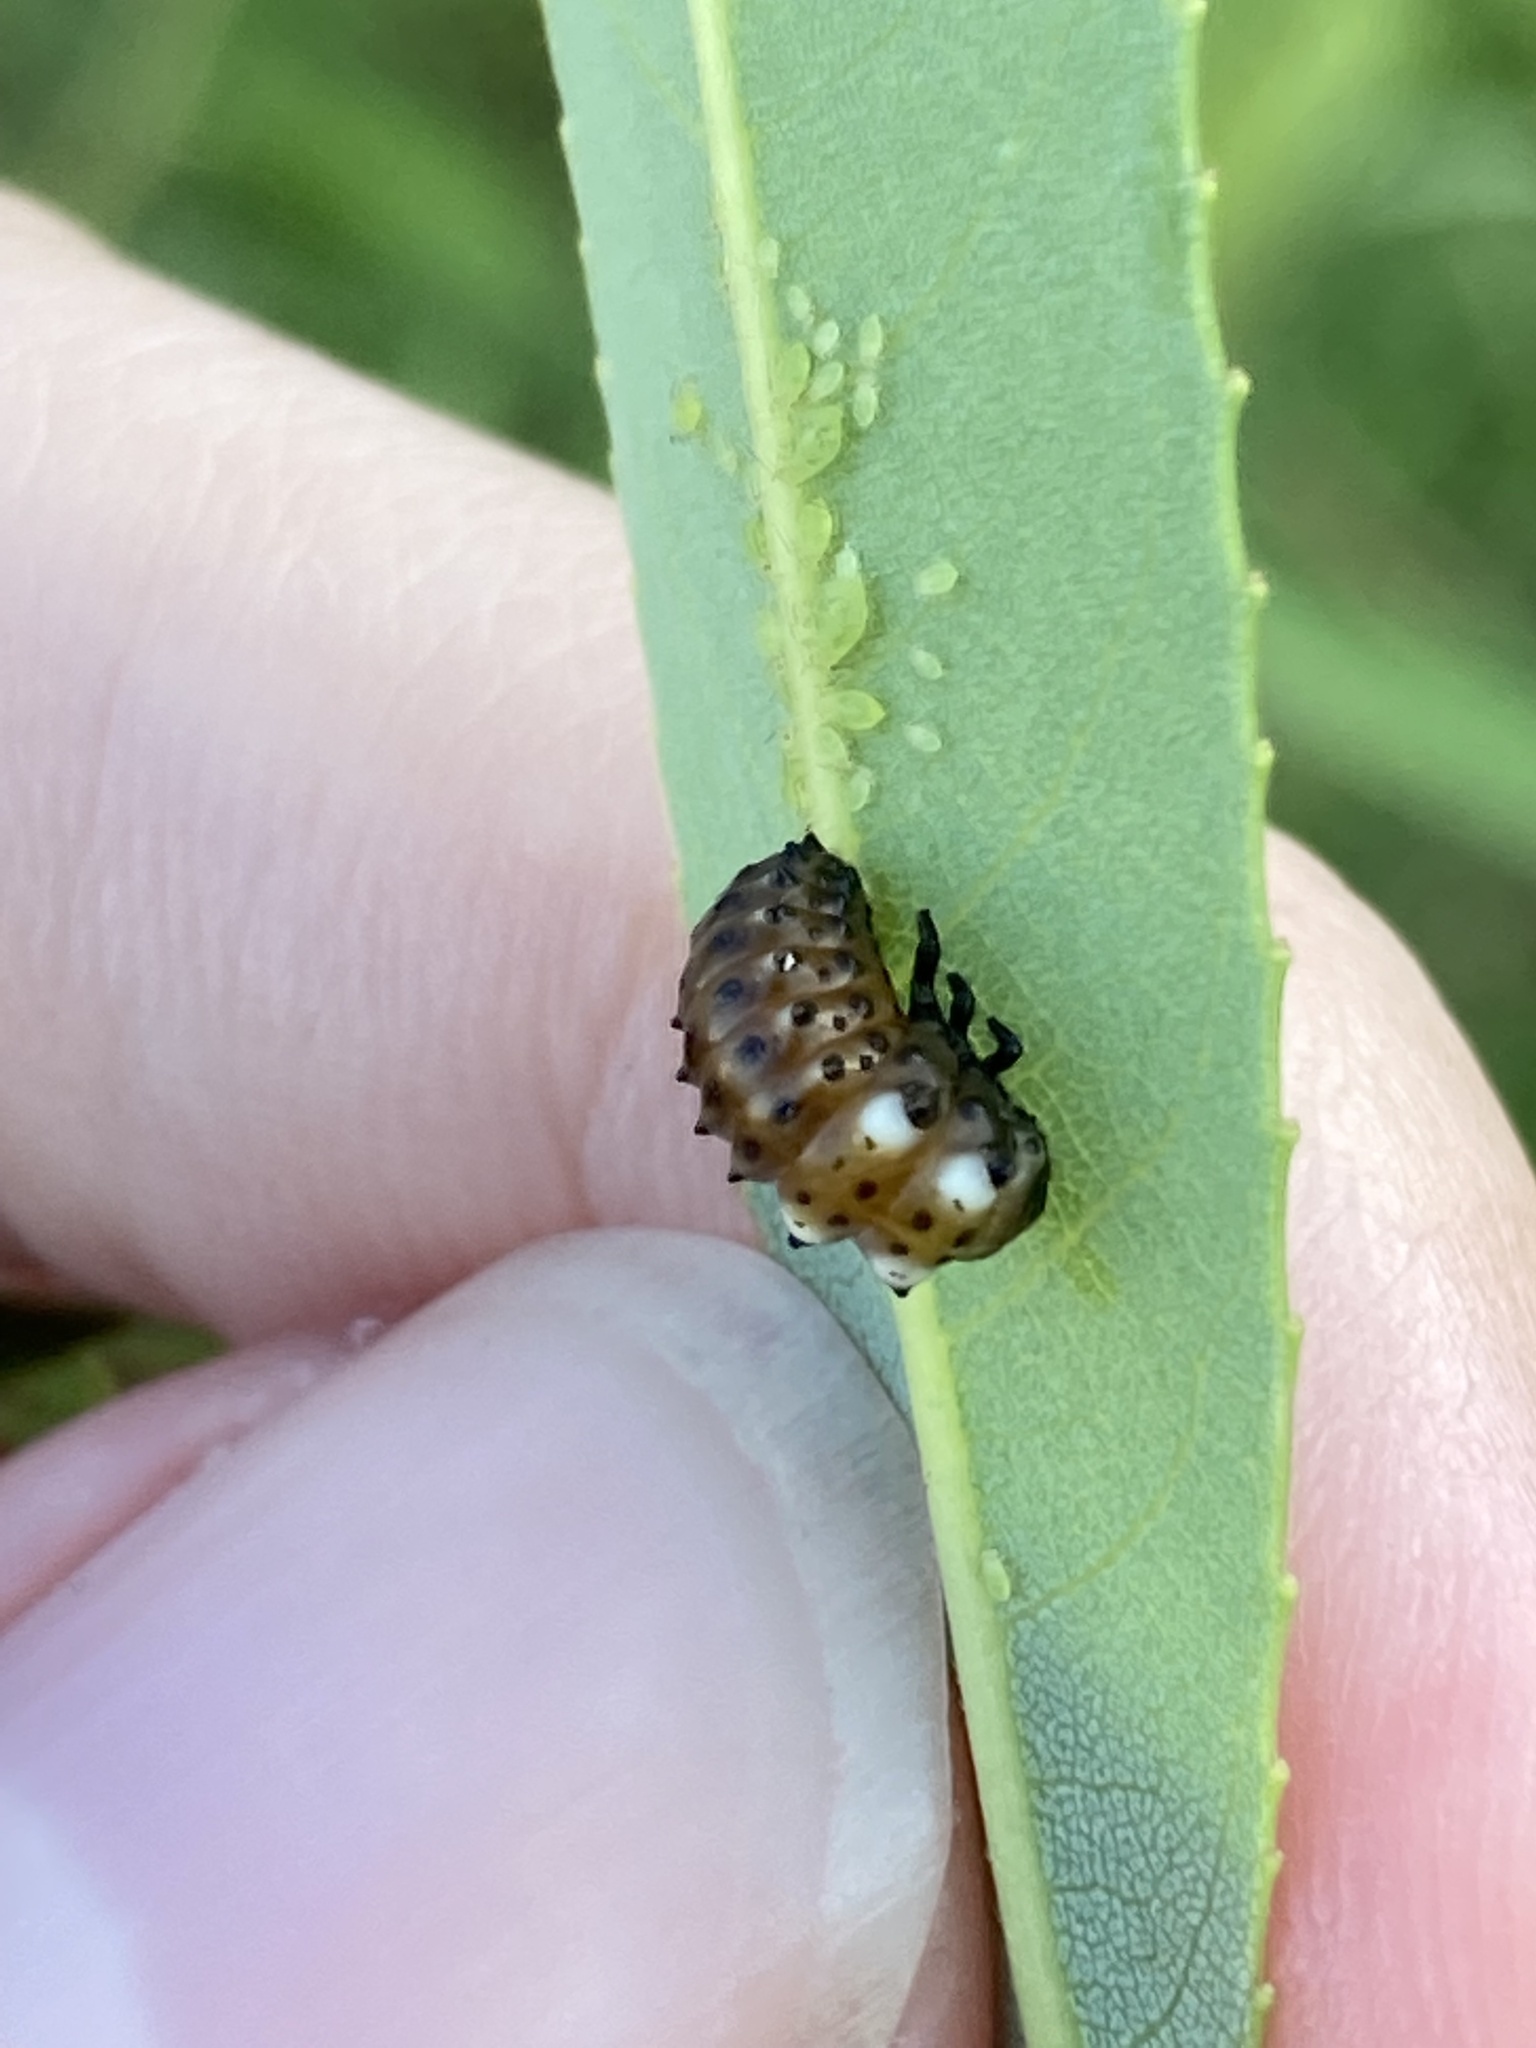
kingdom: Animalia
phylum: Arthropoda
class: Insecta
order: Coleoptera
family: Chrysomelidae
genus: Aethiopocassis
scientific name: Aethiopocassis scripta
